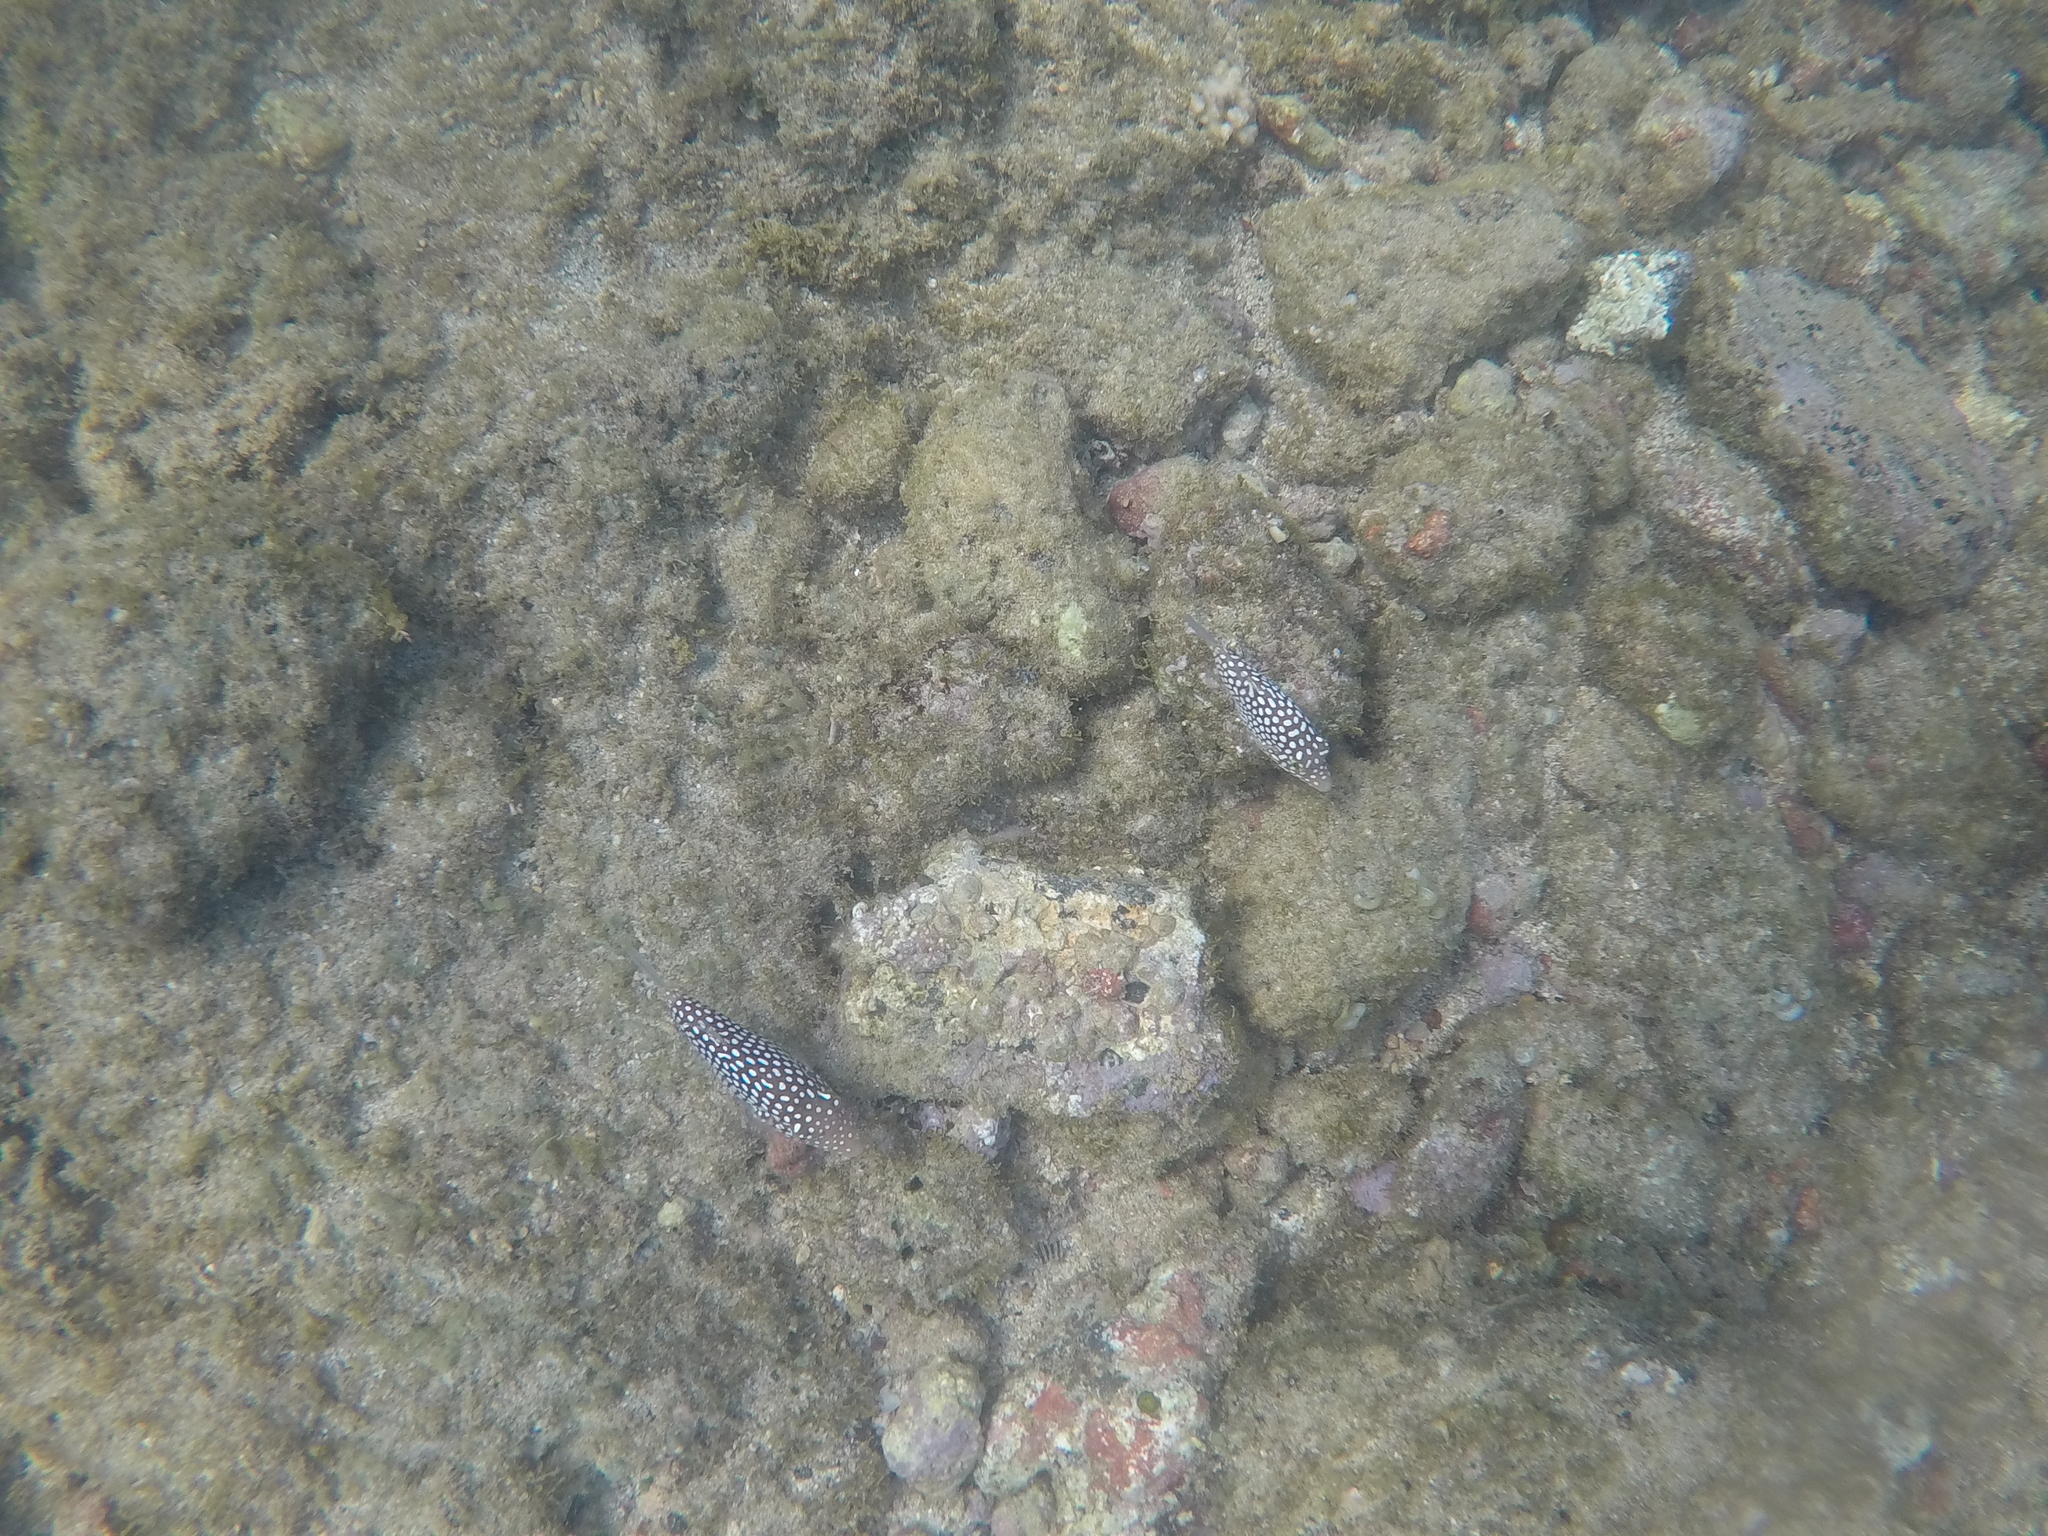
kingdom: Animalia
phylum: Chordata
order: Tetraodontiformes
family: Tetraodontidae
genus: Canthigaster
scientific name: Canthigaster jactator
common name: Hawaiian whitespotted toby
